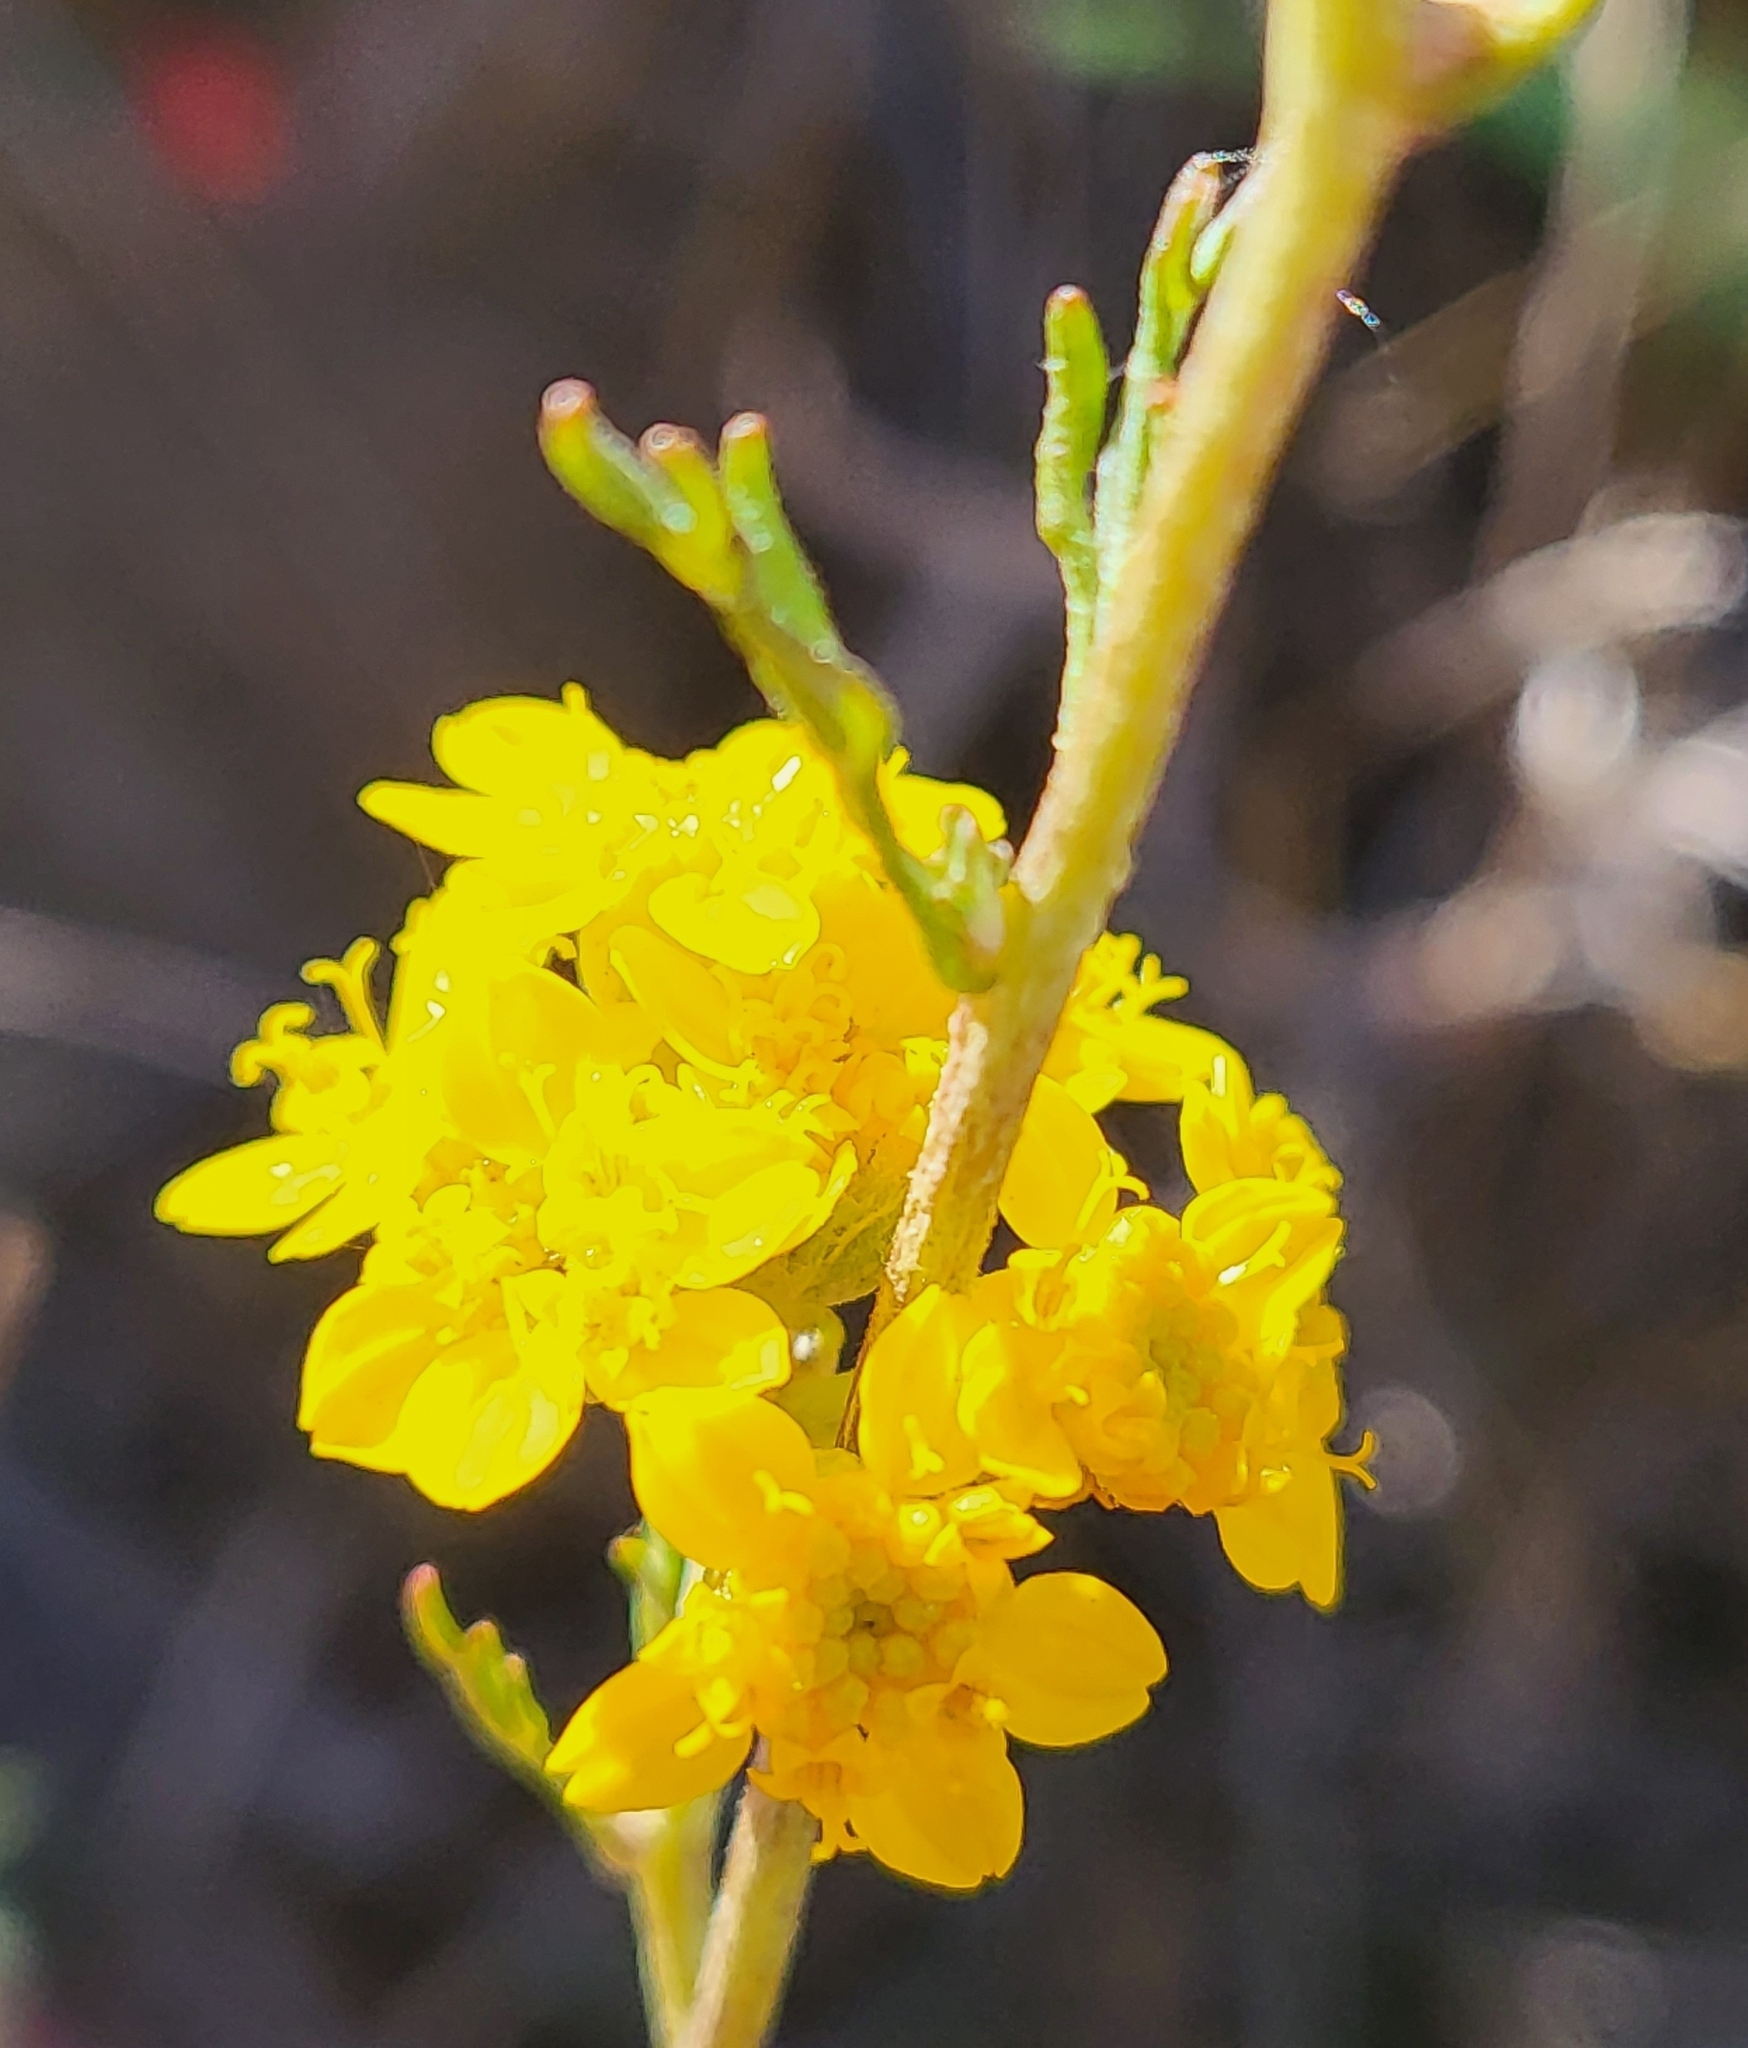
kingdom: Plantae
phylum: Tracheophyta
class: Magnoliopsida
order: Asterales
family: Asteraceae
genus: Eriophyllum
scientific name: Eriophyllum confertiflorum
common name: Golden-yarrow
